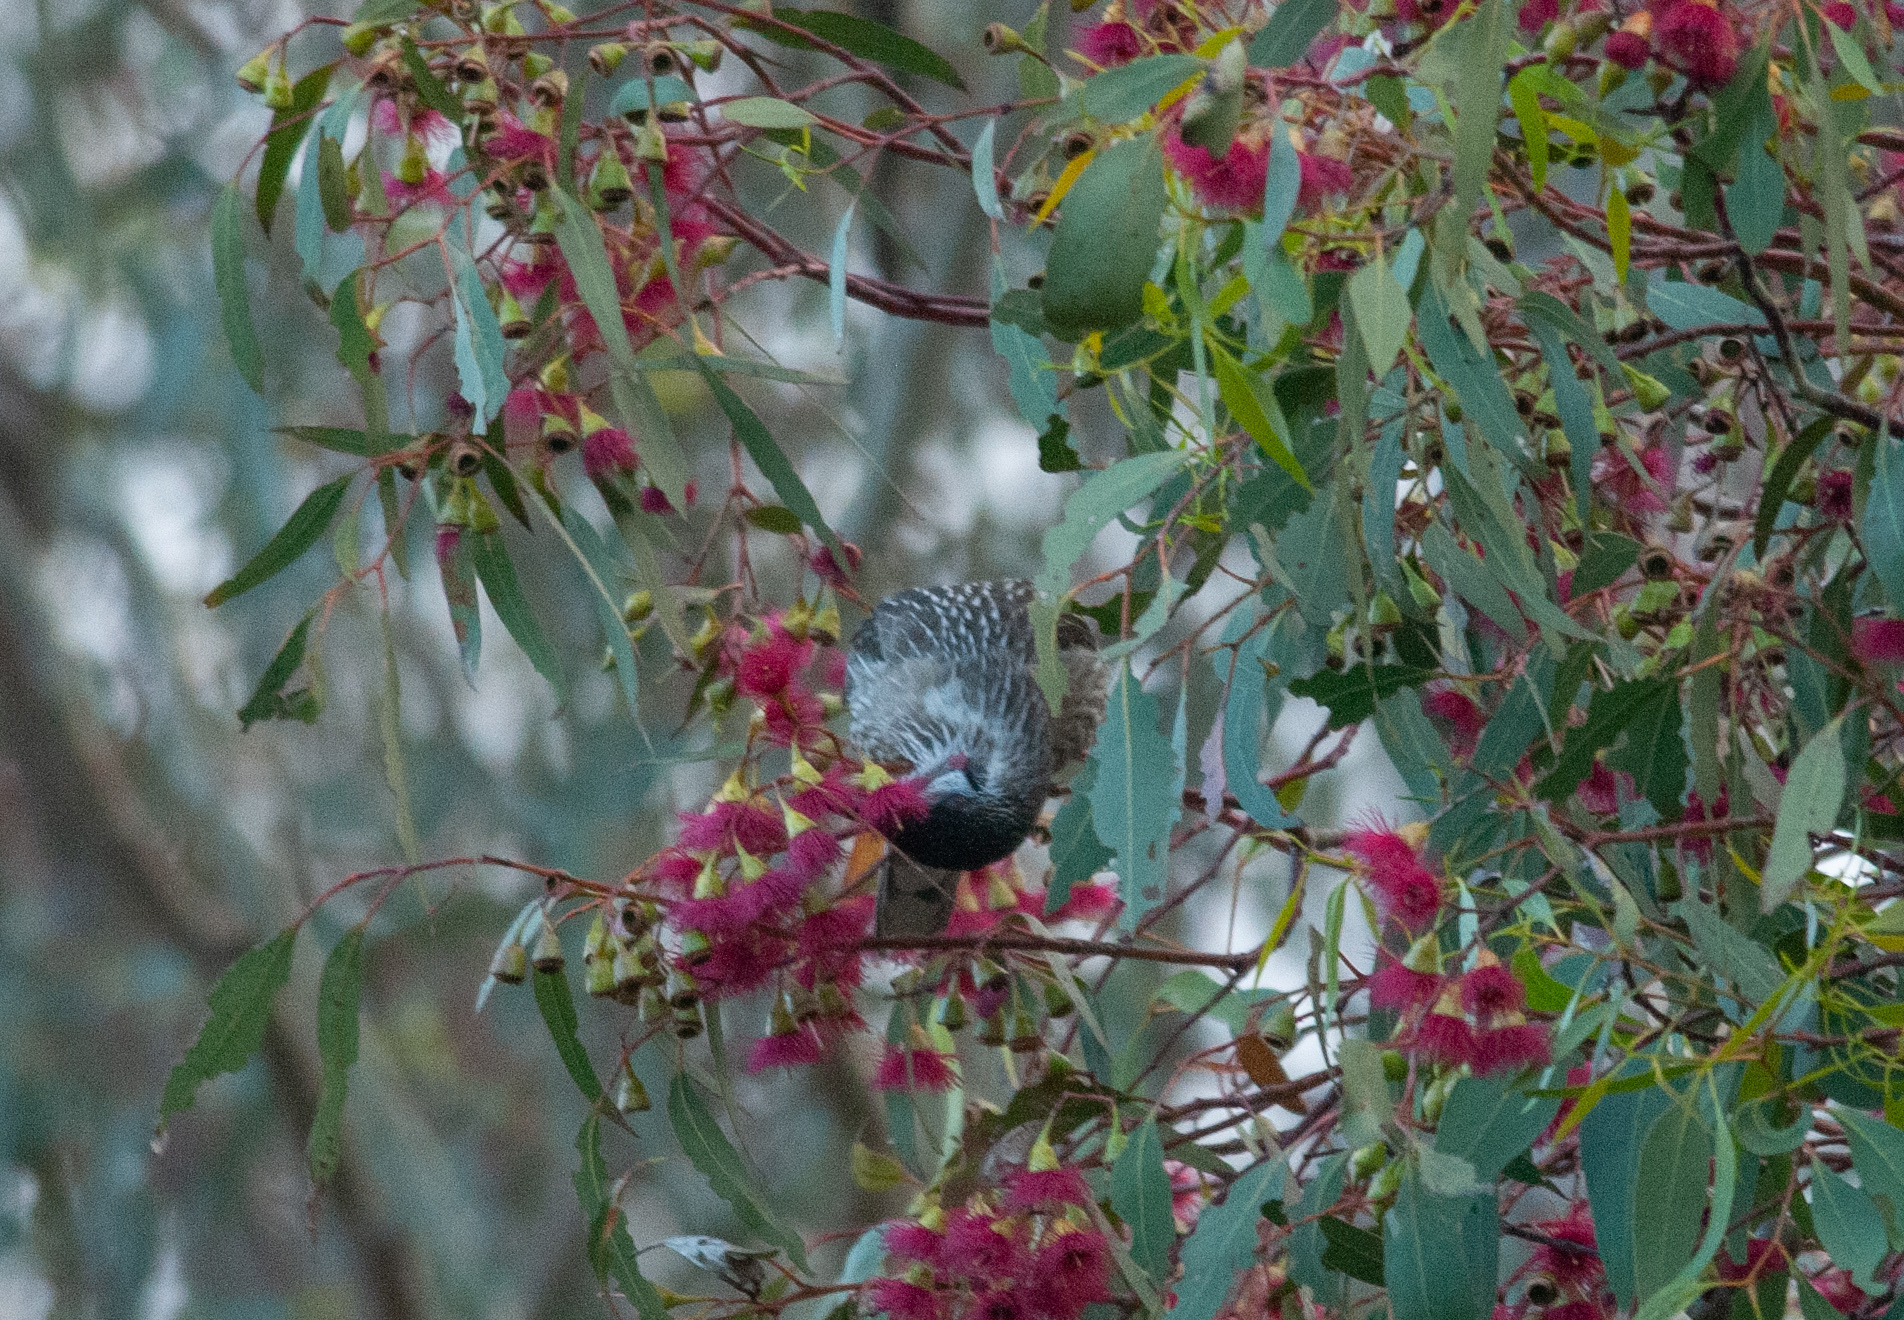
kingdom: Animalia
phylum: Chordata
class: Aves
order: Passeriformes
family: Meliphagidae
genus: Anthochaera
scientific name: Anthochaera carunculata
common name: Red wattlebird
